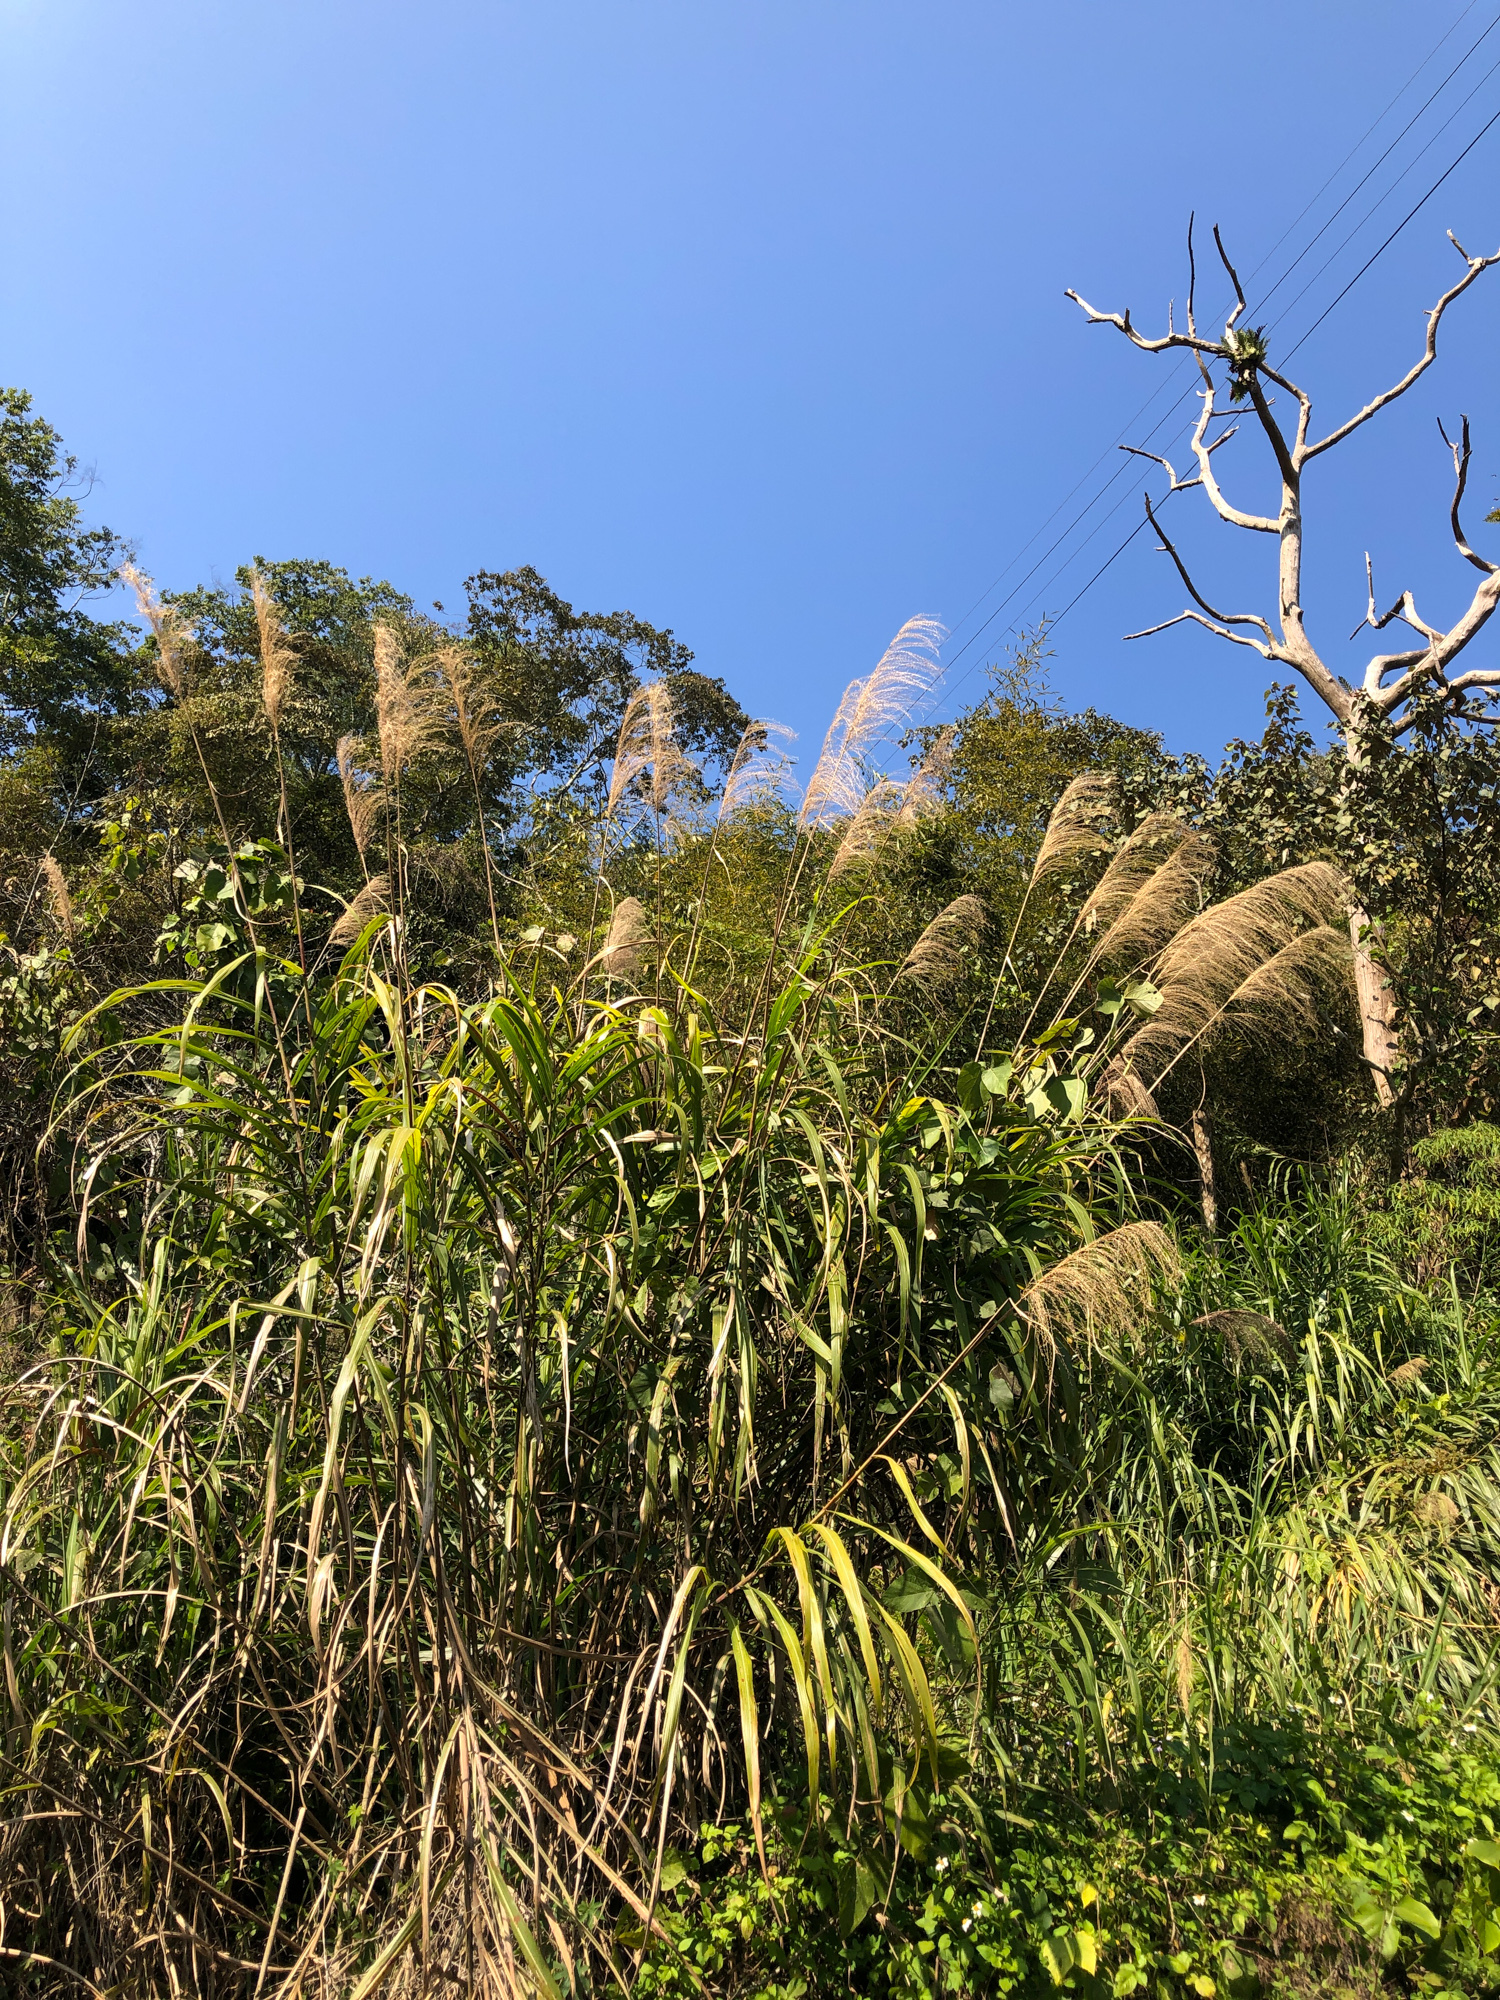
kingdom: Plantae
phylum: Tracheophyta
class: Liliopsida
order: Poales
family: Poaceae
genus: Miscanthus
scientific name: Miscanthus floridulus
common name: Pacific island silvergrass
